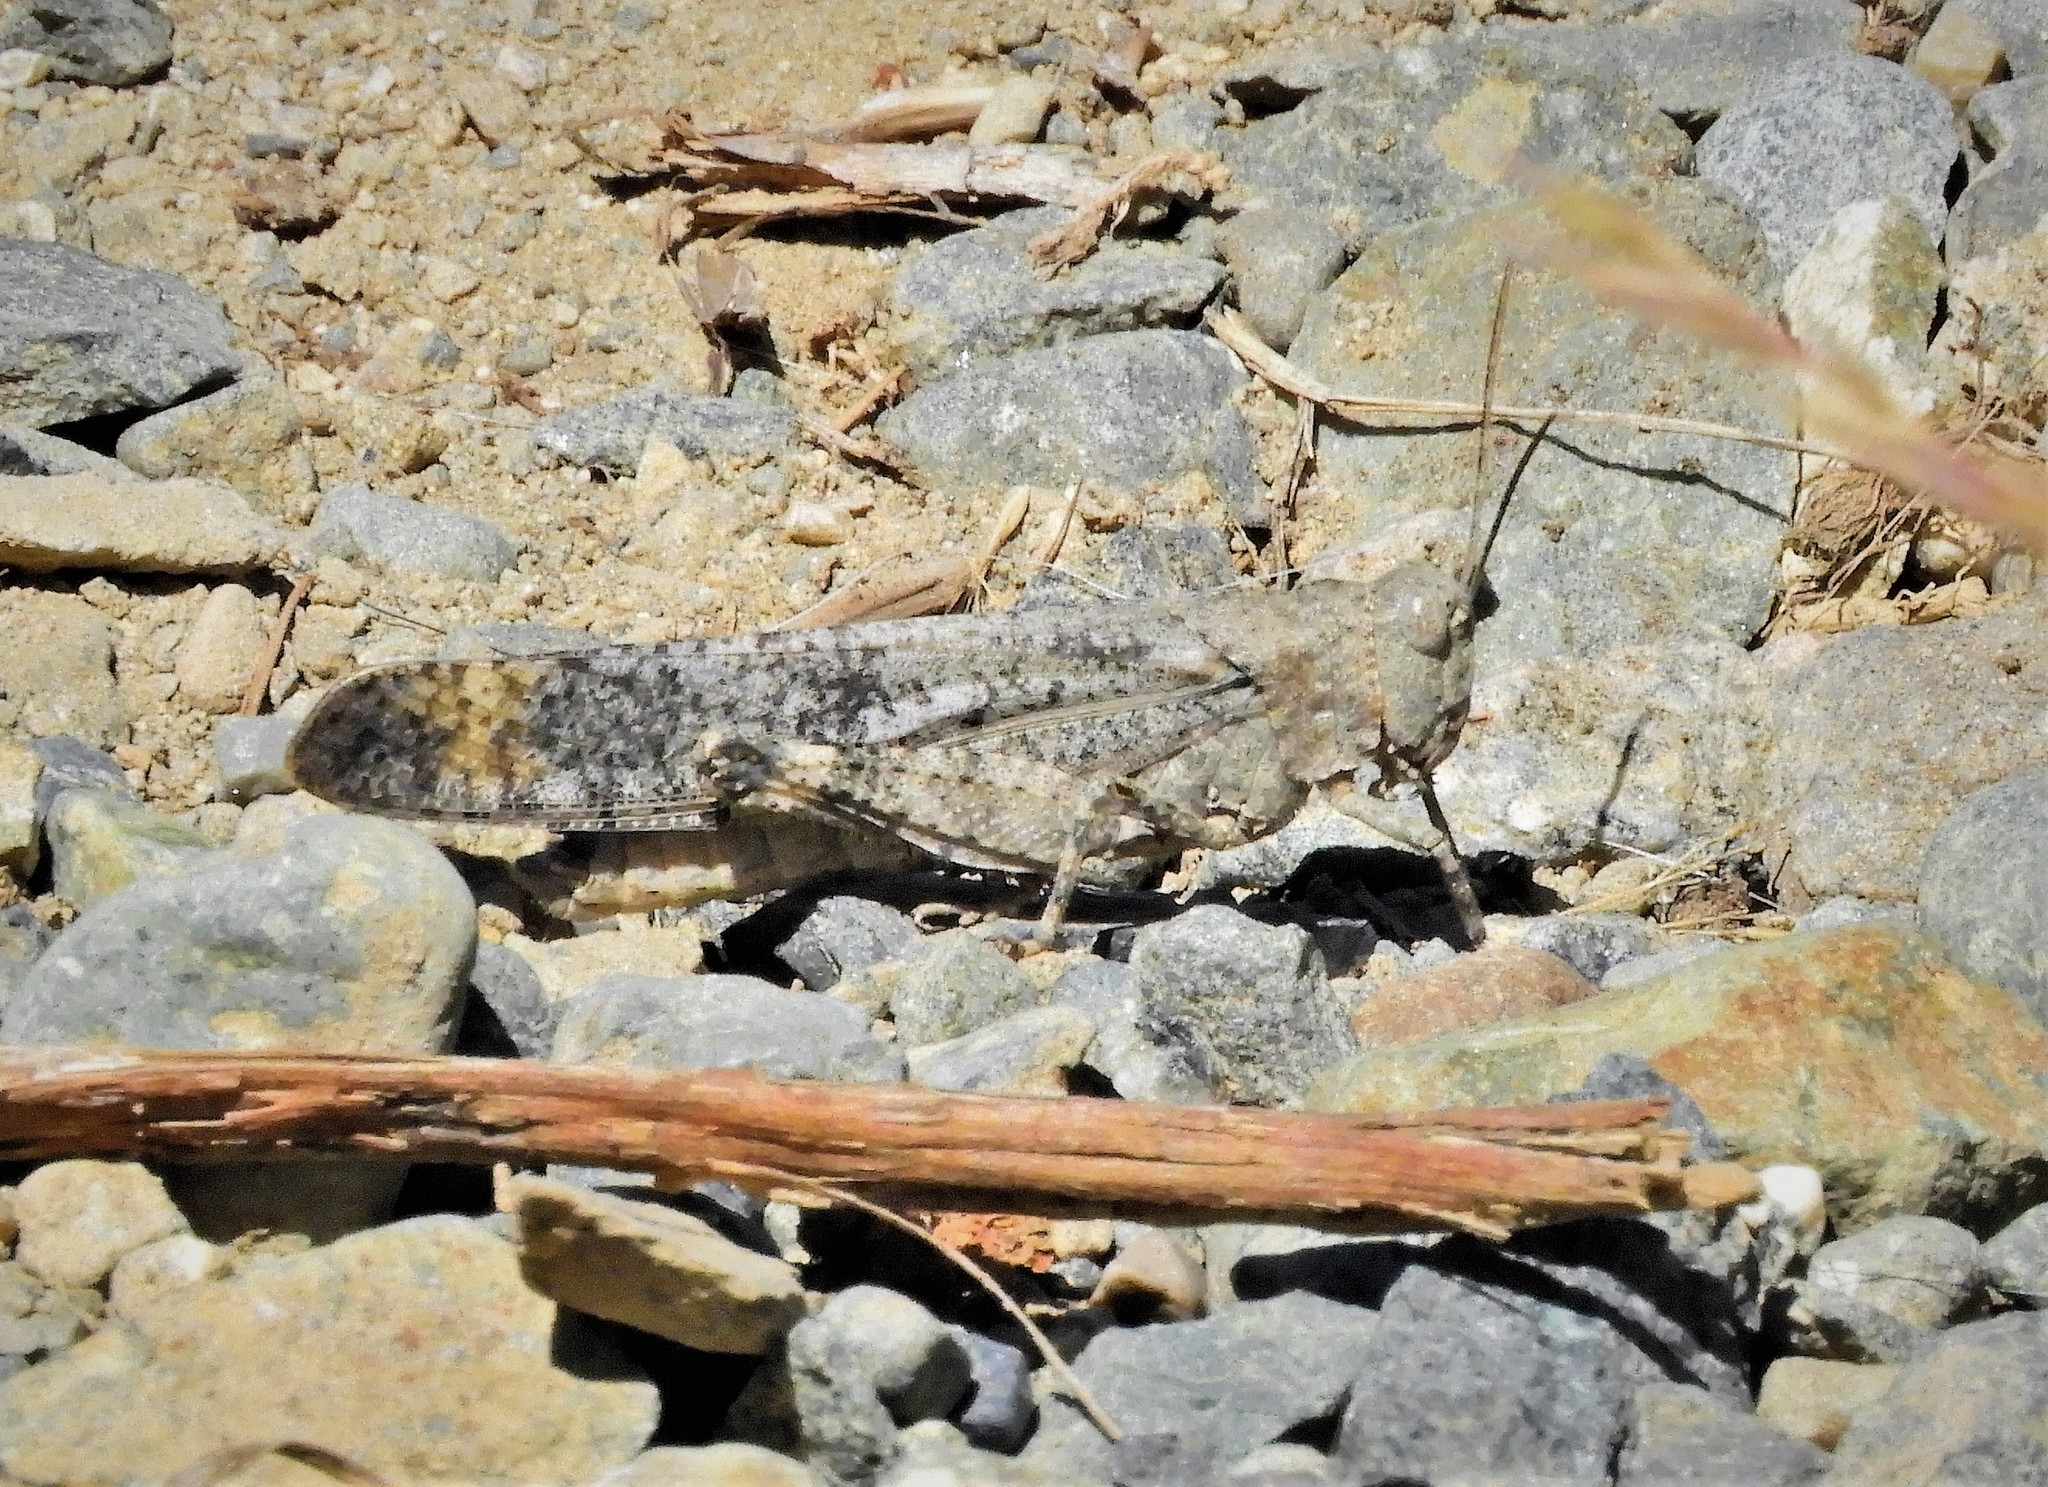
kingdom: Animalia
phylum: Arthropoda
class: Insecta
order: Orthoptera
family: Acrididae
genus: Dissosteira
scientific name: Dissosteira carolina
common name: Carolina grasshopper
